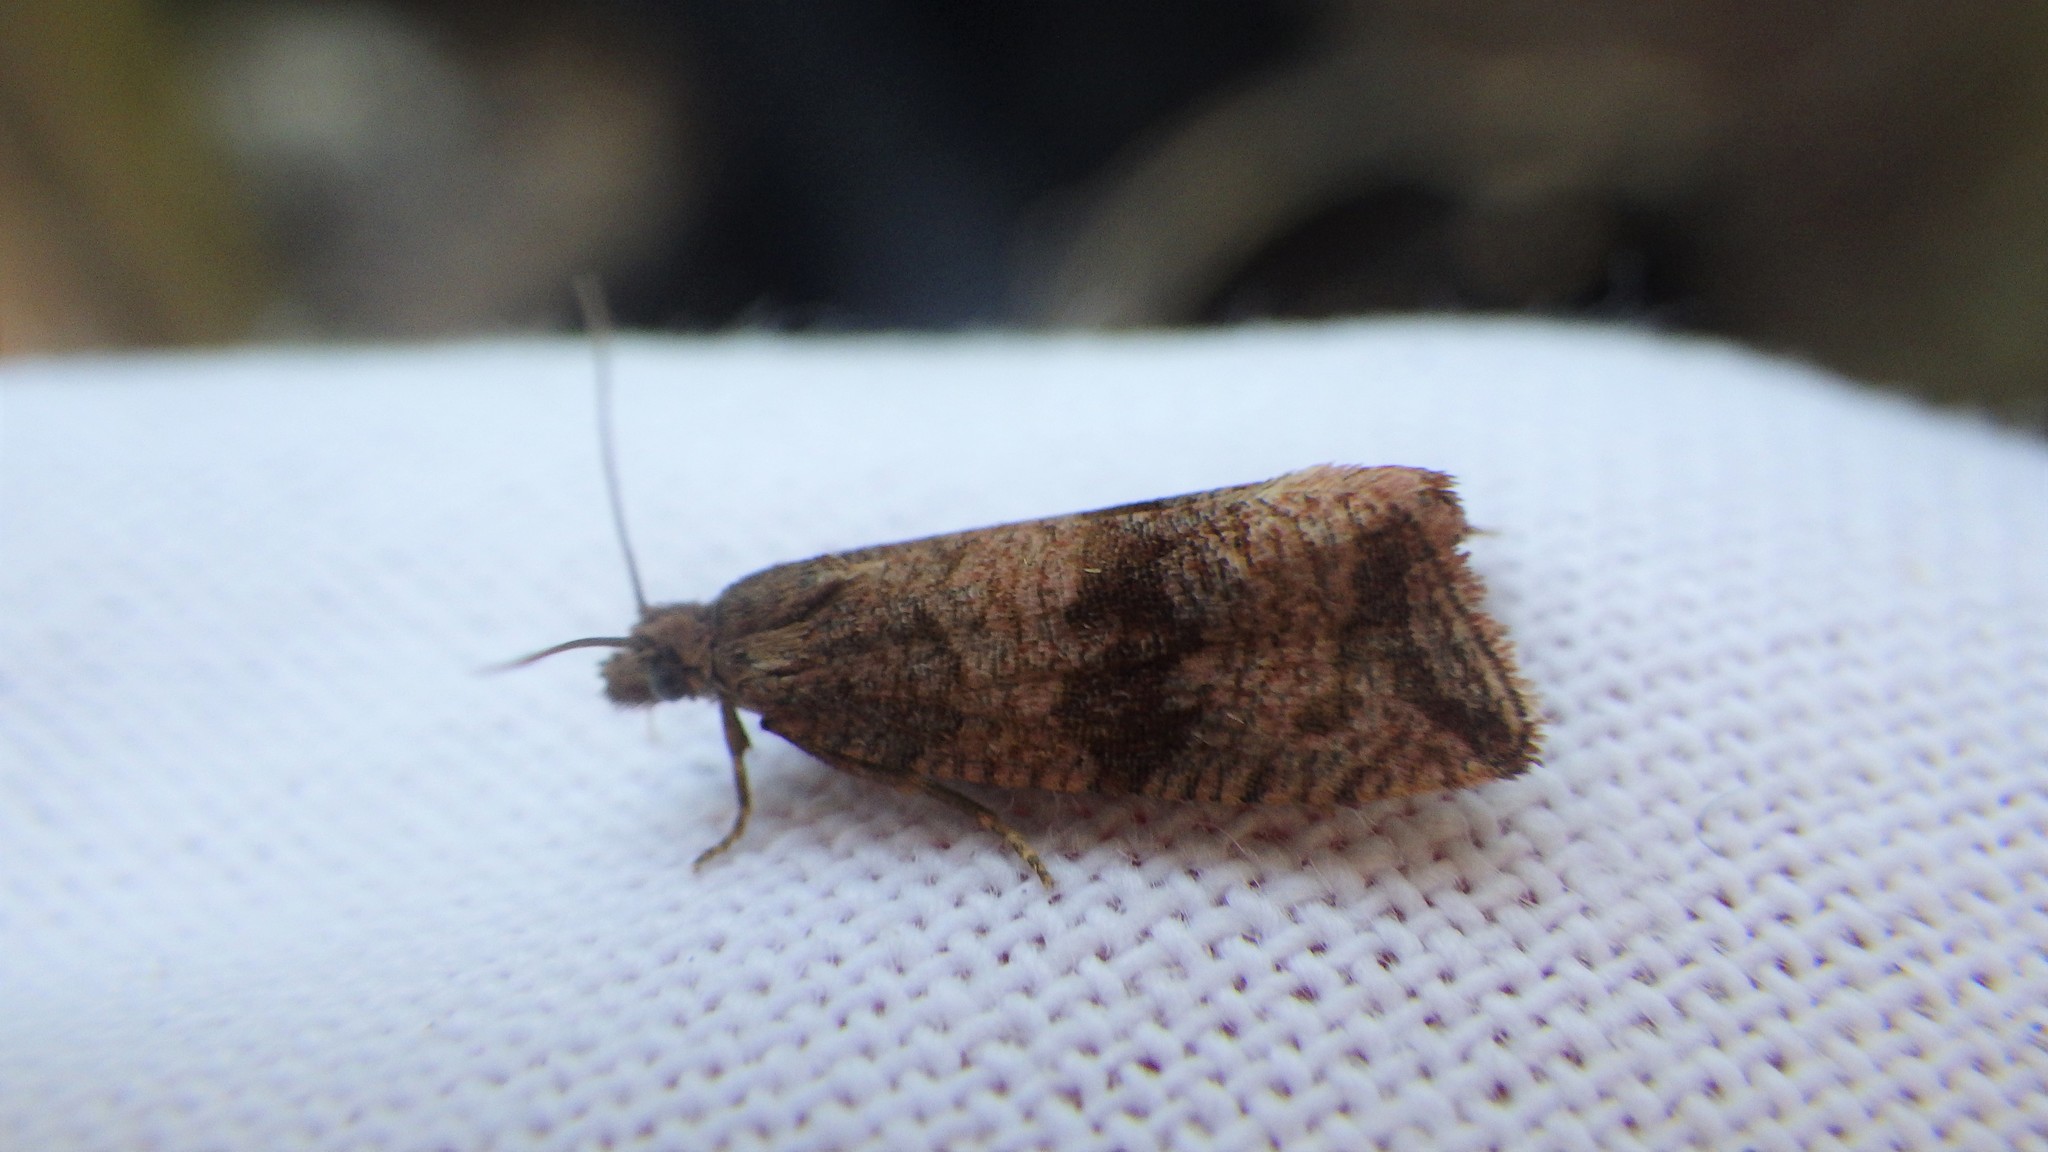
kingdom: Animalia
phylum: Arthropoda
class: Insecta
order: Lepidoptera
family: Tortricidae
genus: Celypha
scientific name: Celypha striana
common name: Barred marble
